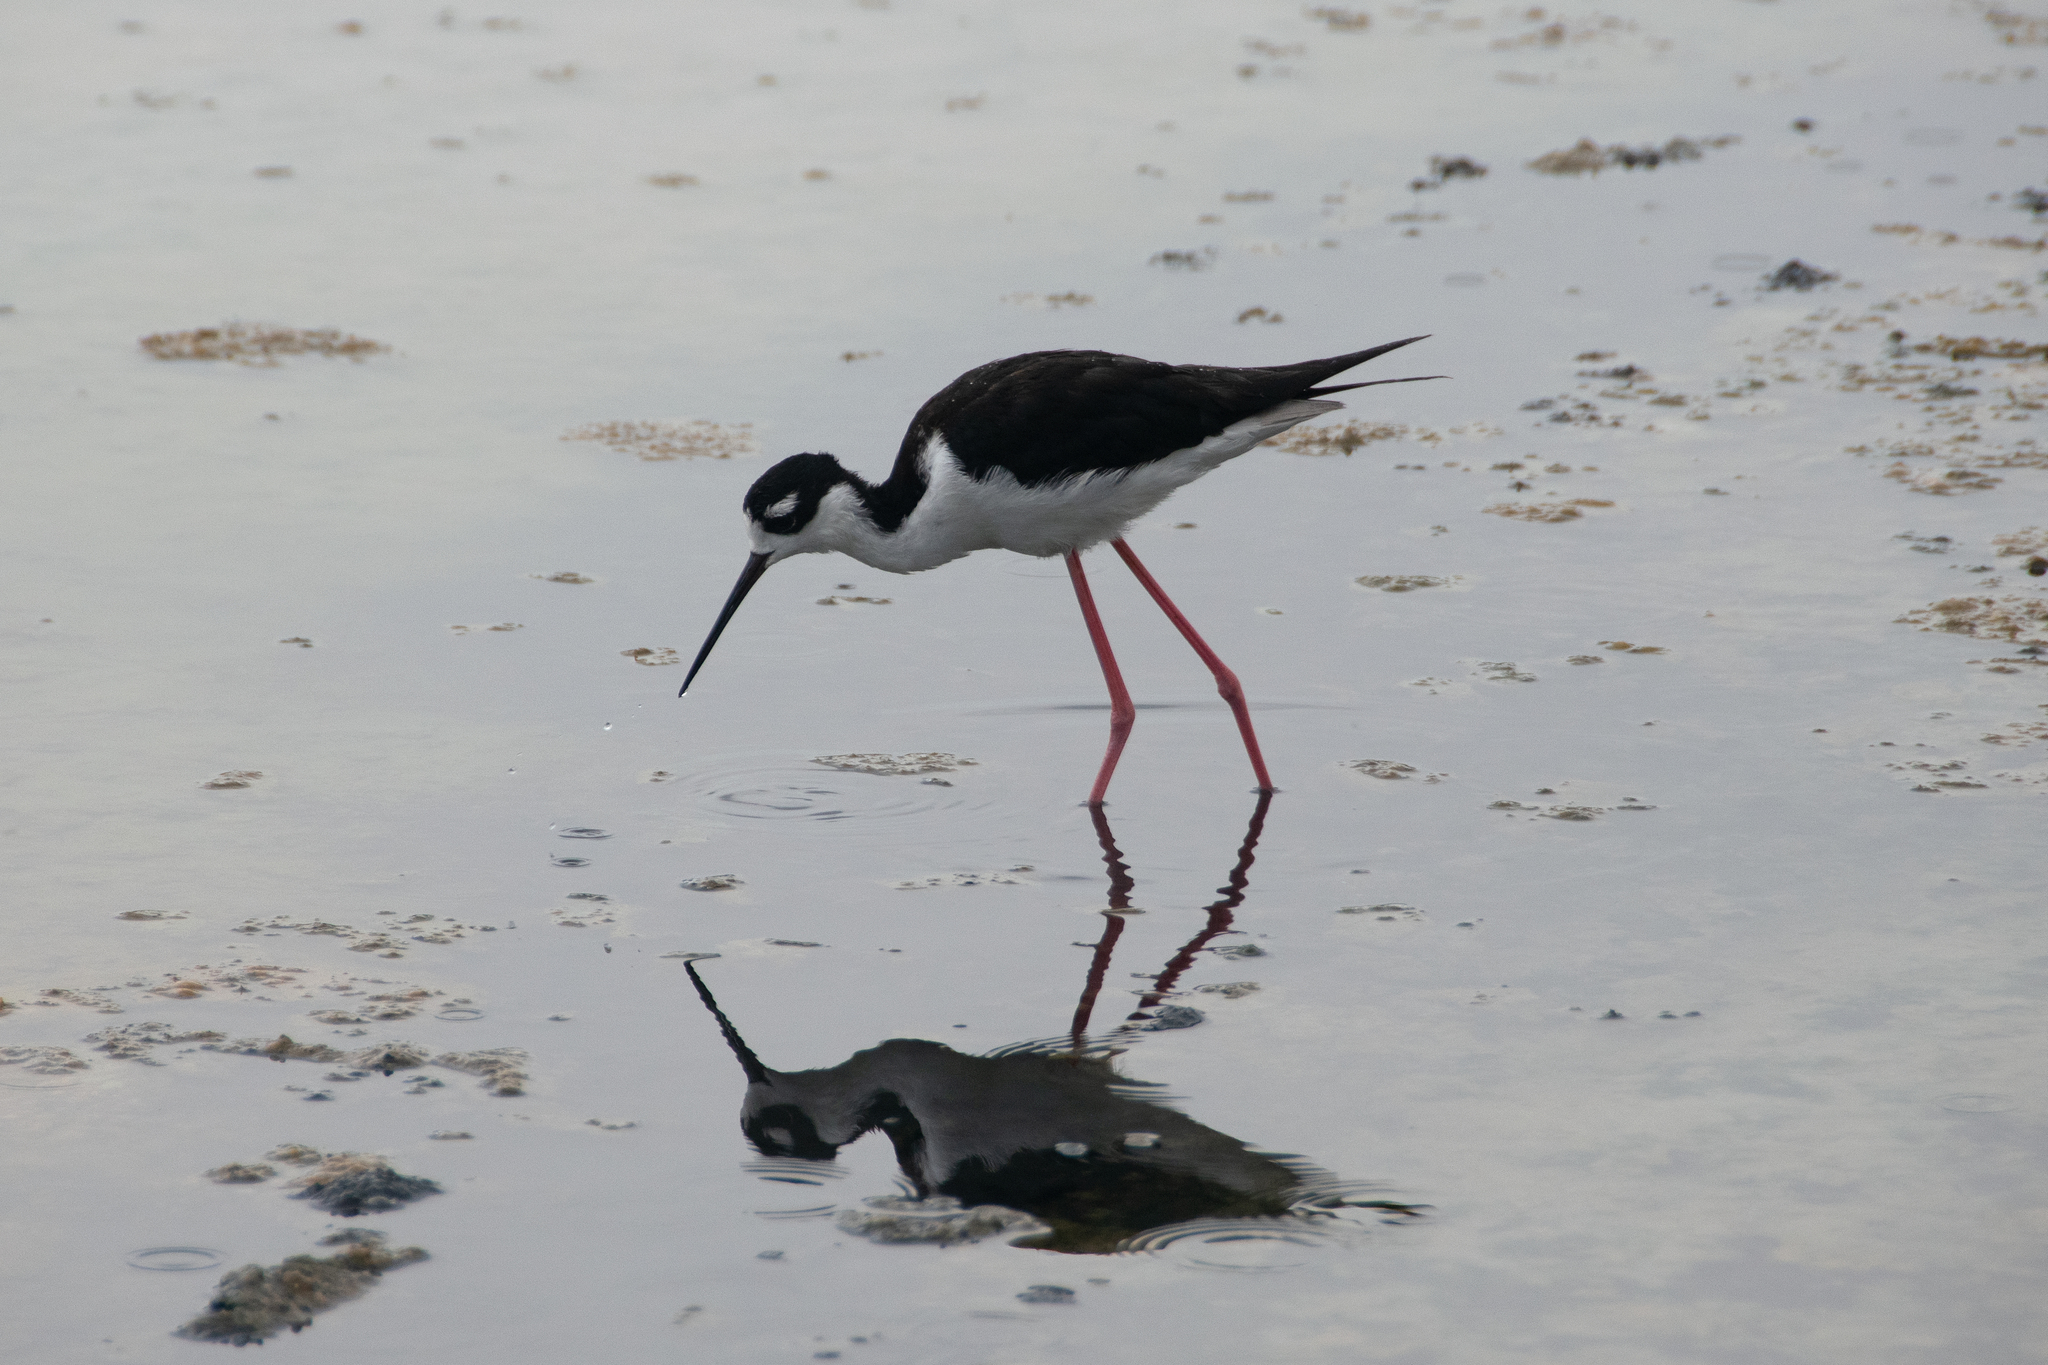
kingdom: Animalia
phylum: Chordata
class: Aves
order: Charadriiformes
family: Recurvirostridae
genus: Himantopus
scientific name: Himantopus mexicanus
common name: Black-necked stilt
